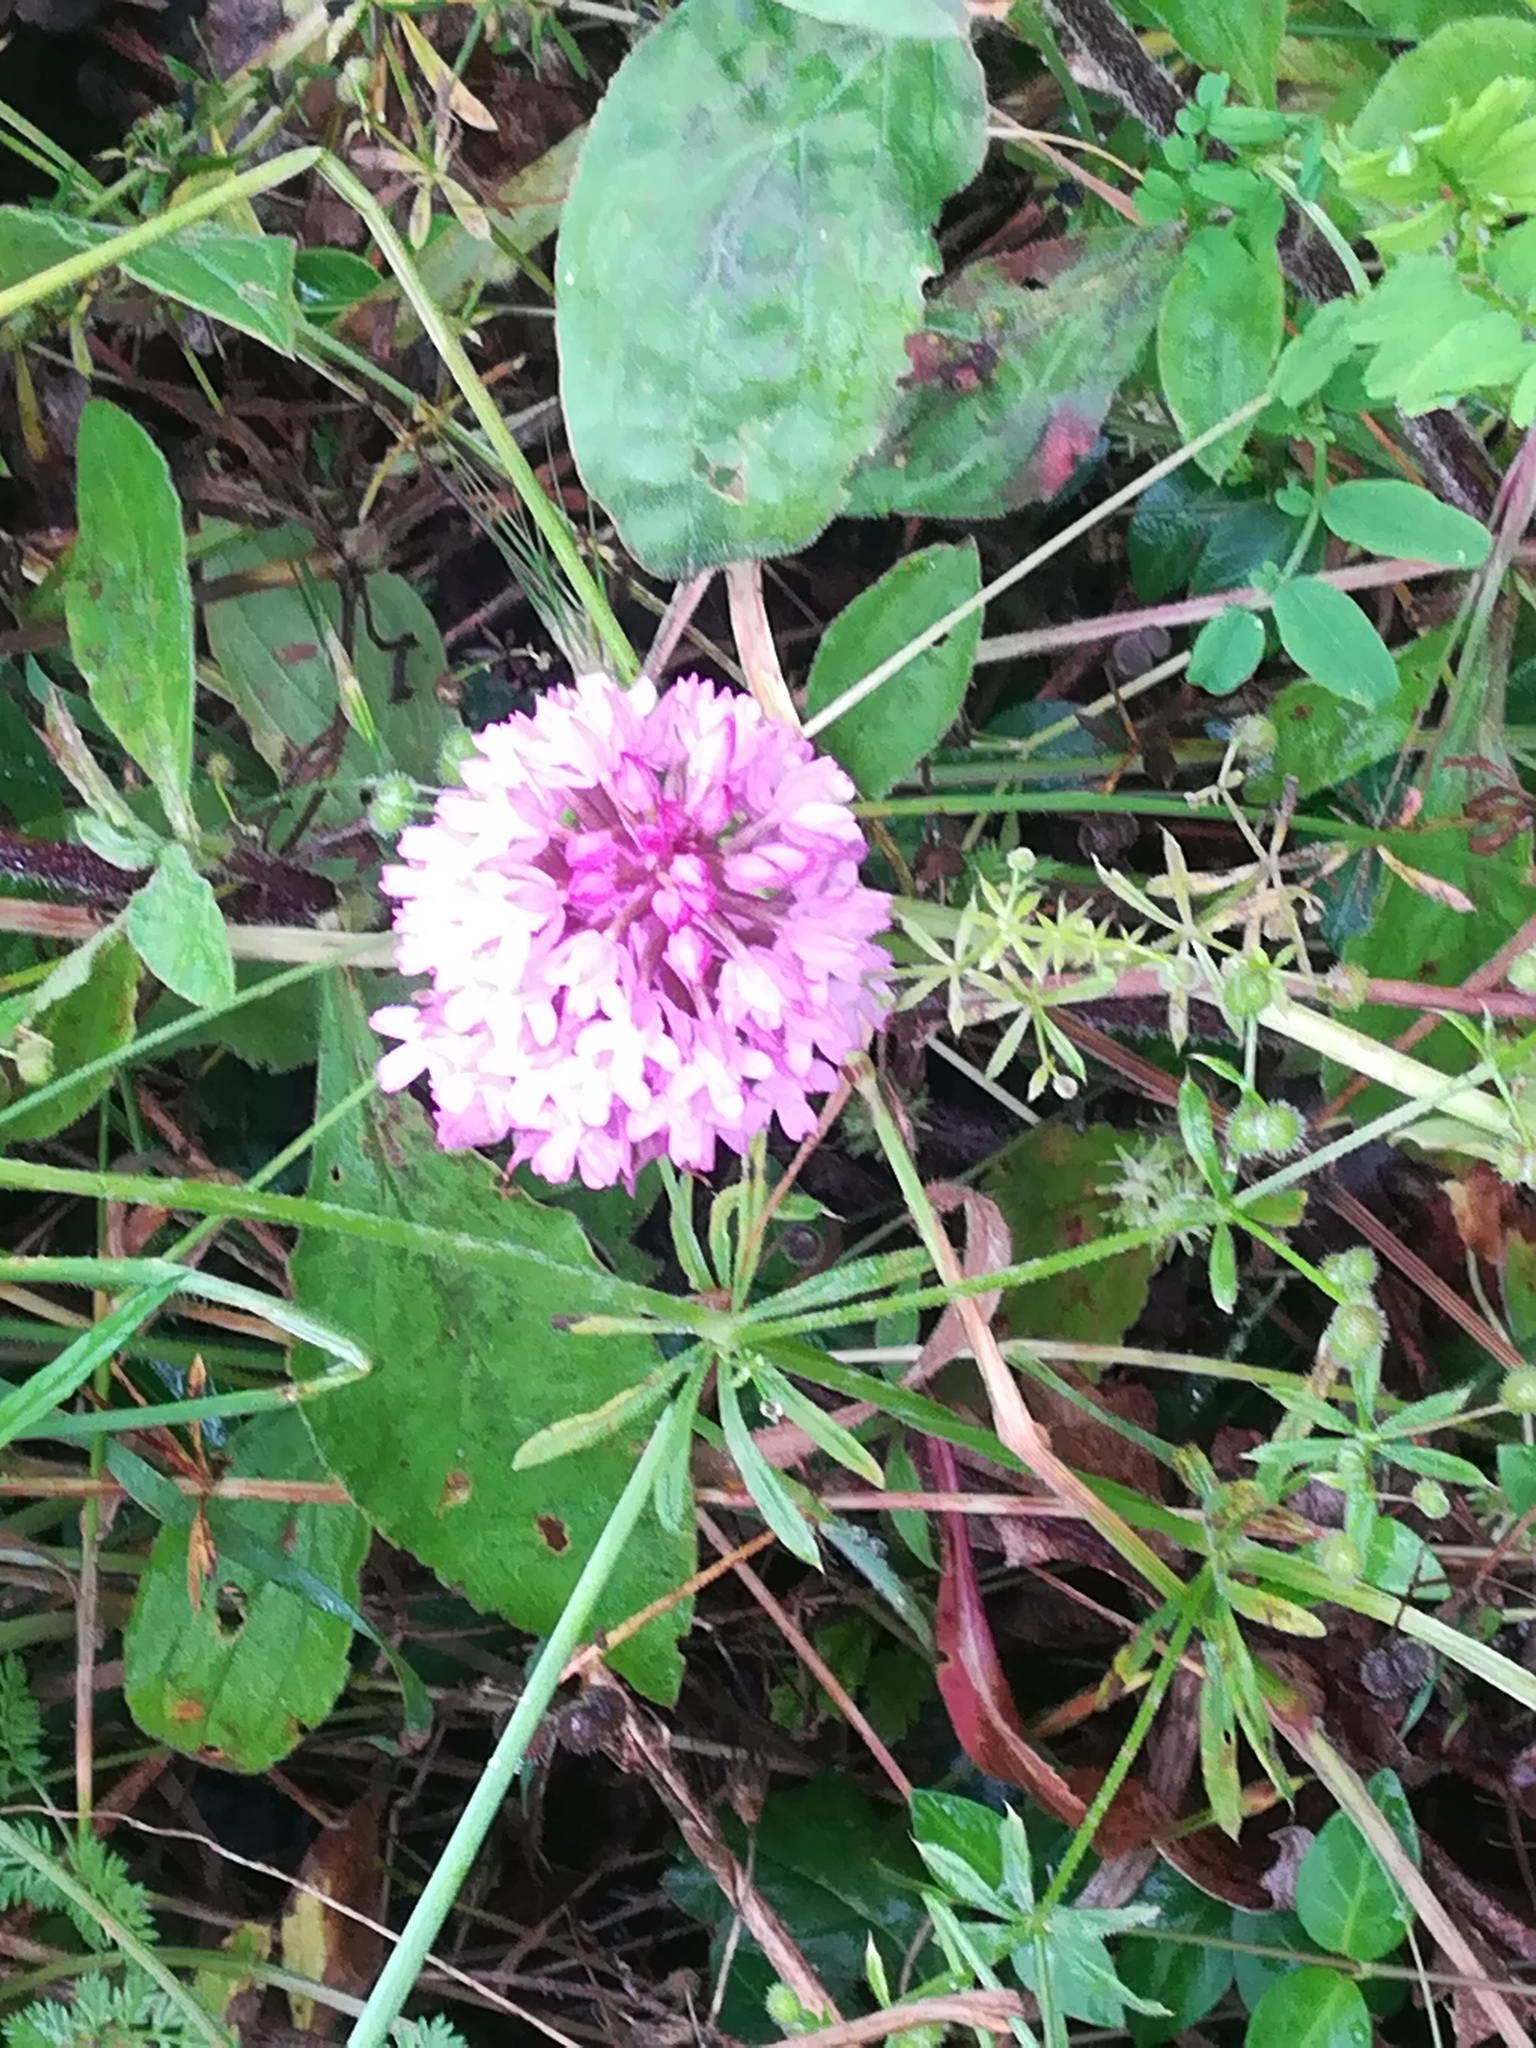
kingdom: Plantae
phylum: Tracheophyta
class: Liliopsida
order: Asparagales
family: Orchidaceae
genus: Anacamptis
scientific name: Anacamptis pyramidalis
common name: Pyramidal orchid
